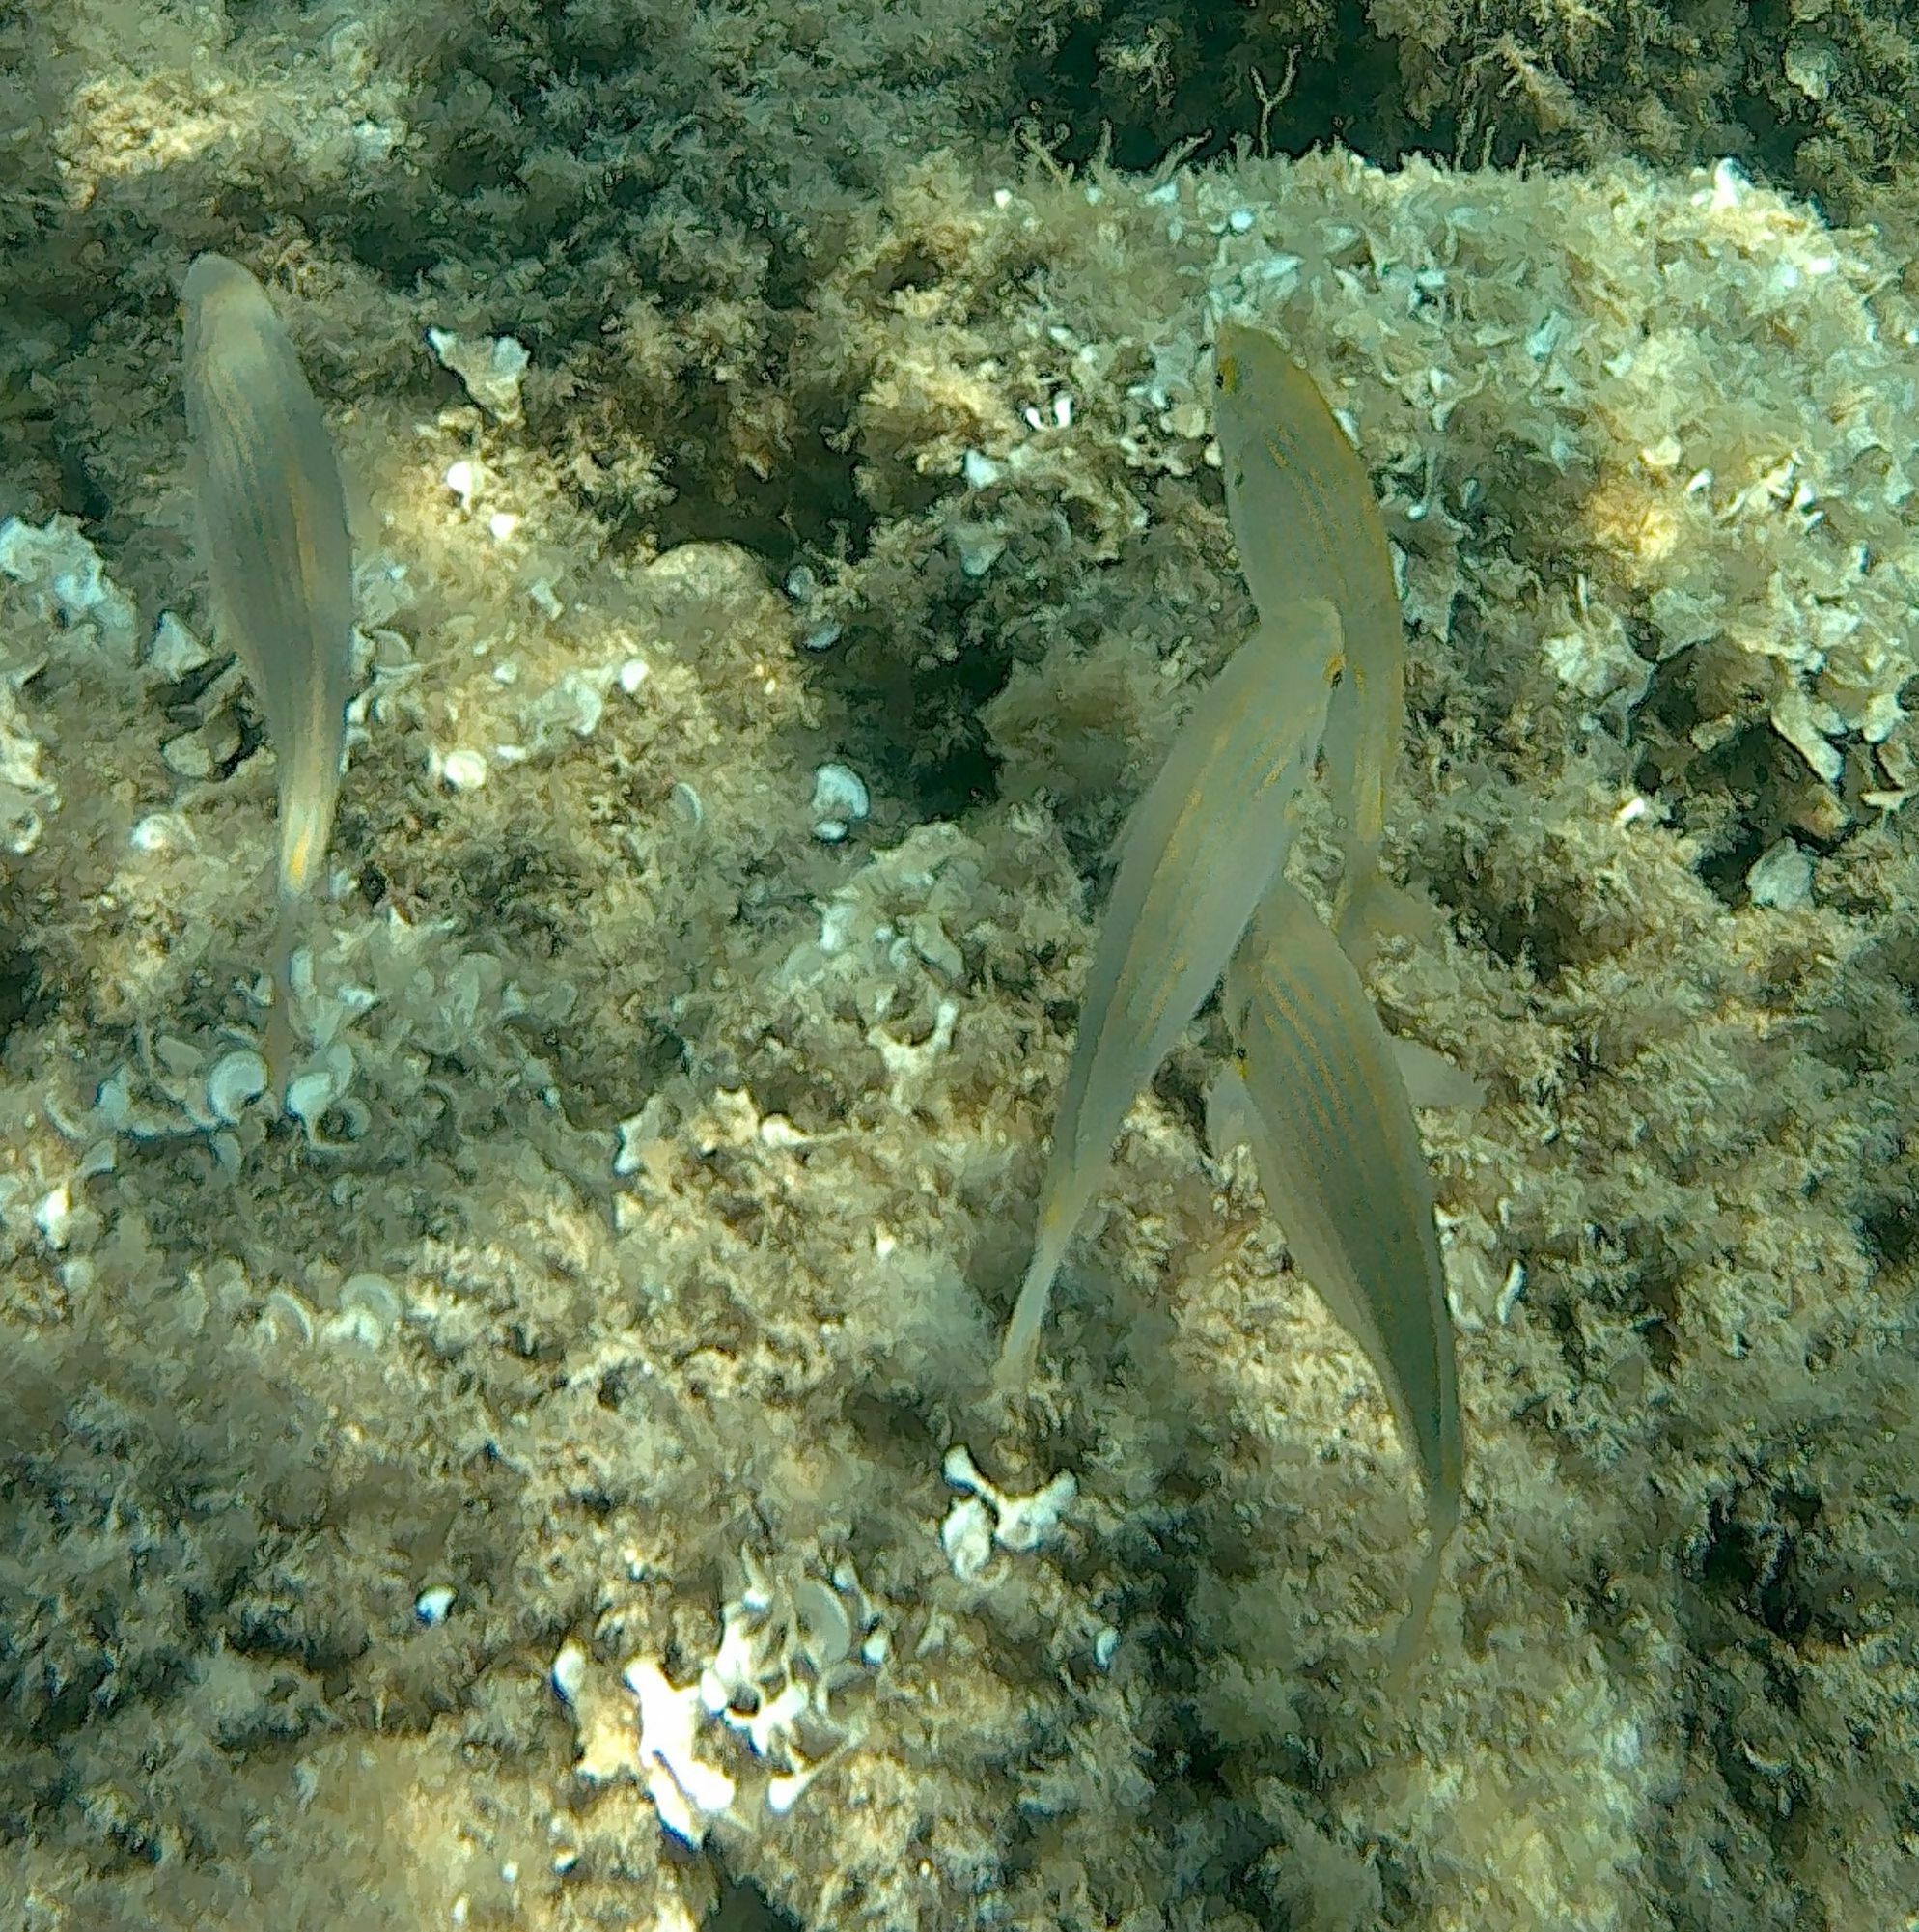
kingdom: Animalia
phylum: Chordata
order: Perciformes
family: Sparidae
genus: Sarpa
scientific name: Sarpa salpa
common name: Salema
